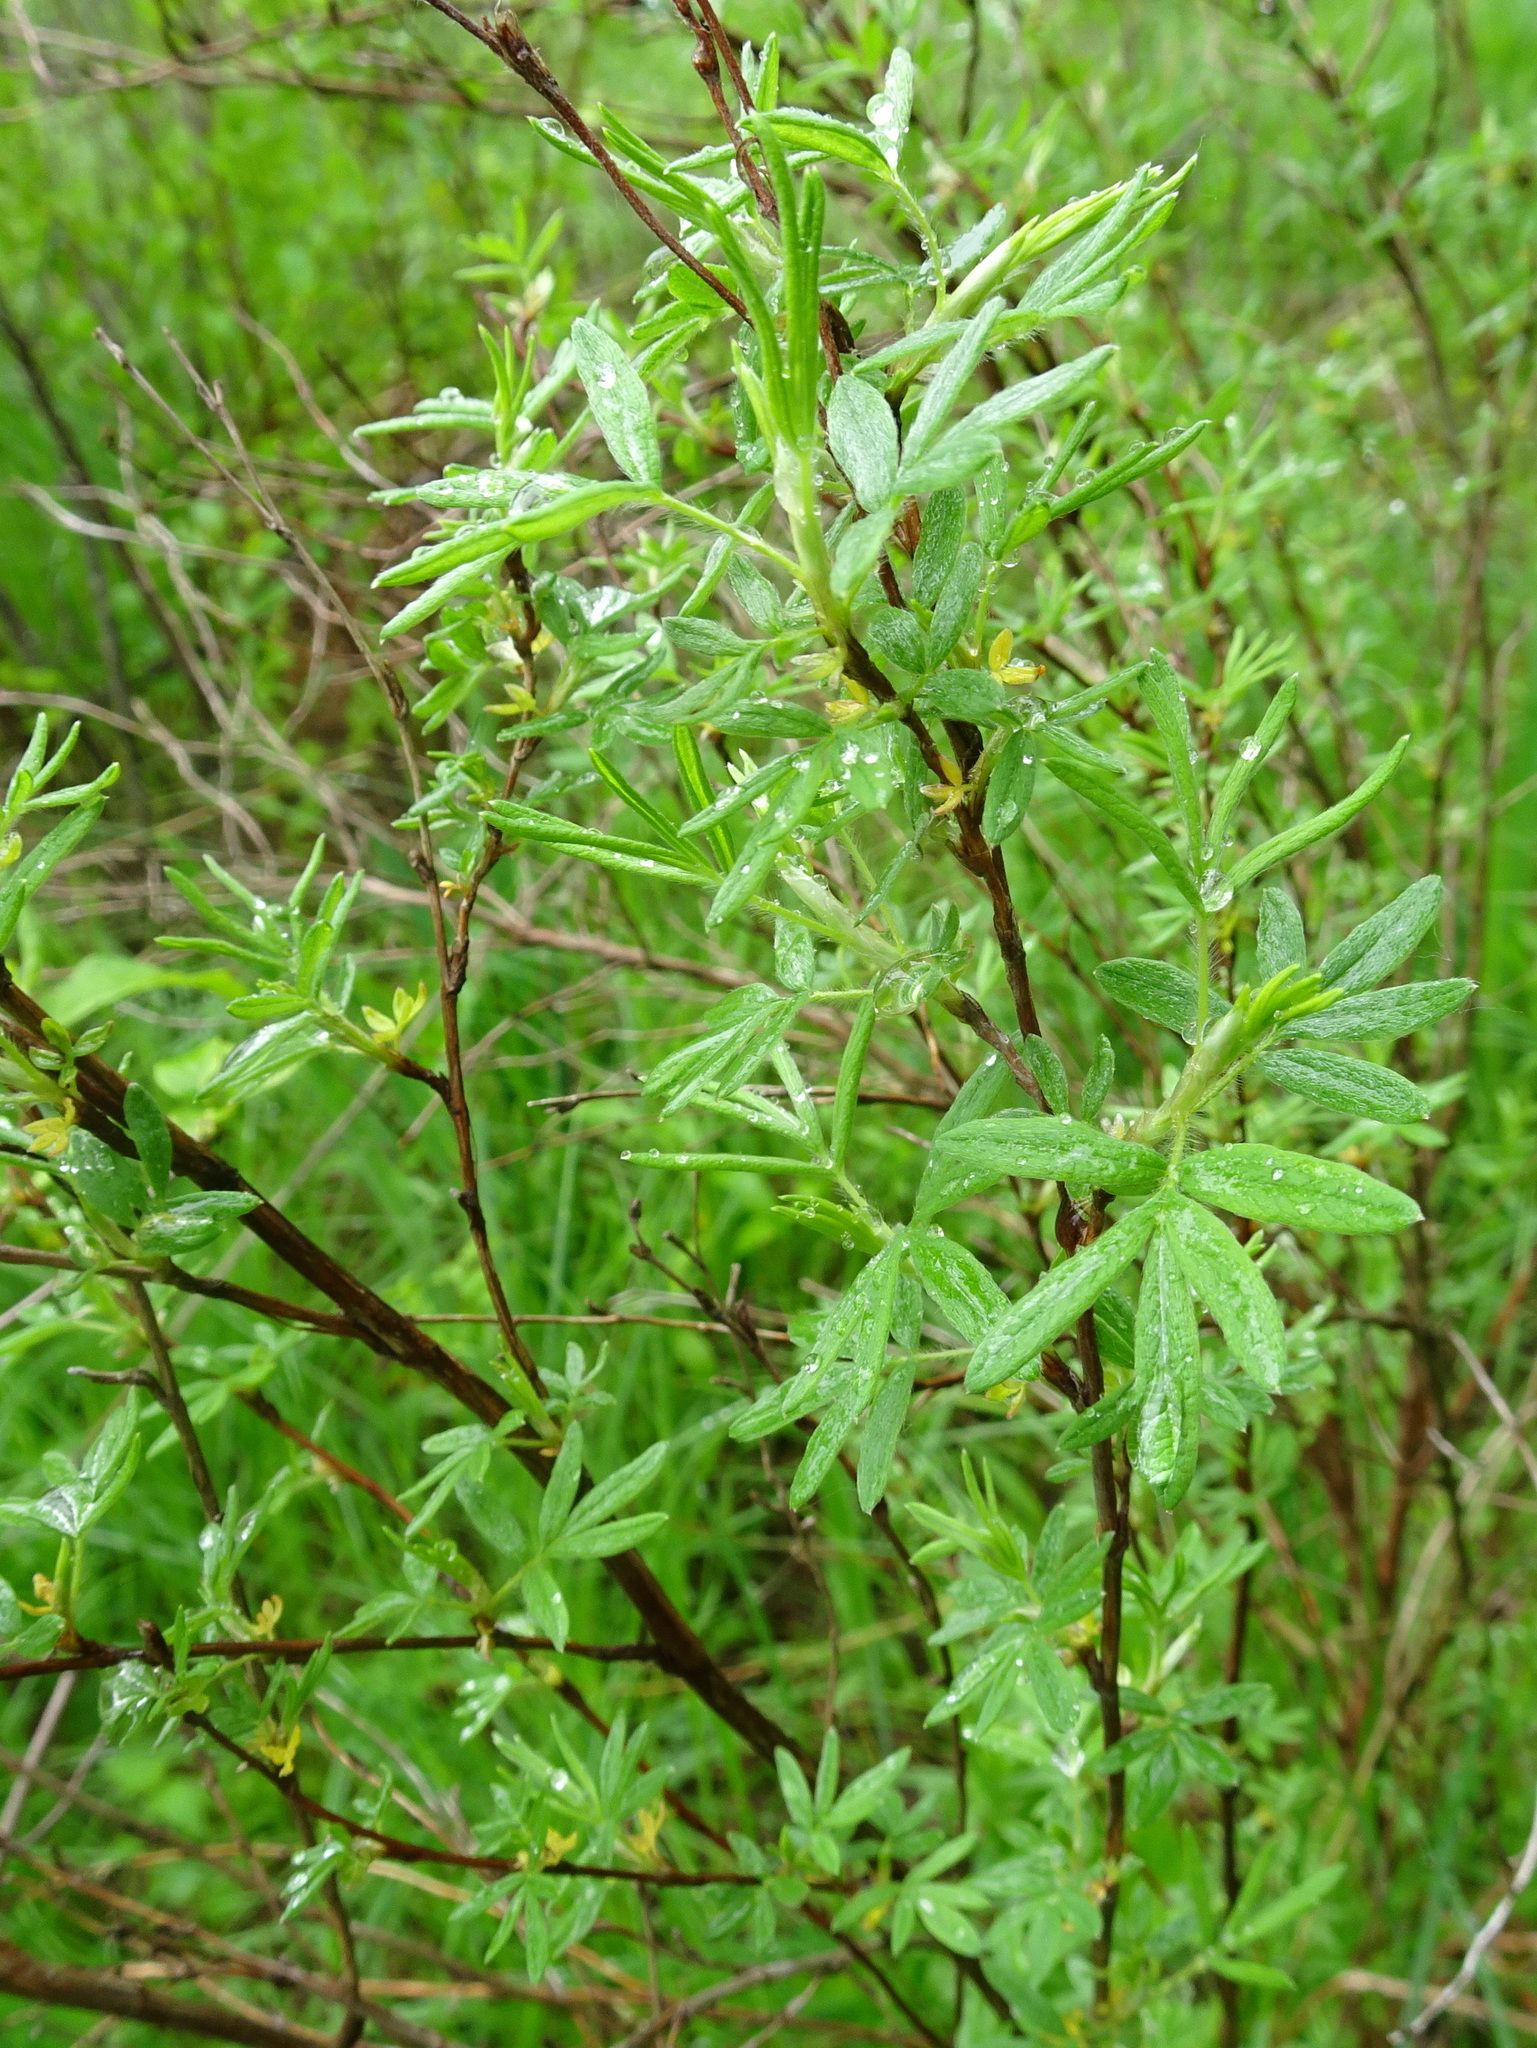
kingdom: Plantae
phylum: Tracheophyta
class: Magnoliopsida
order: Rosales
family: Rosaceae
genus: Dasiphora
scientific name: Dasiphora fruticosa
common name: Shrubby cinquefoil
